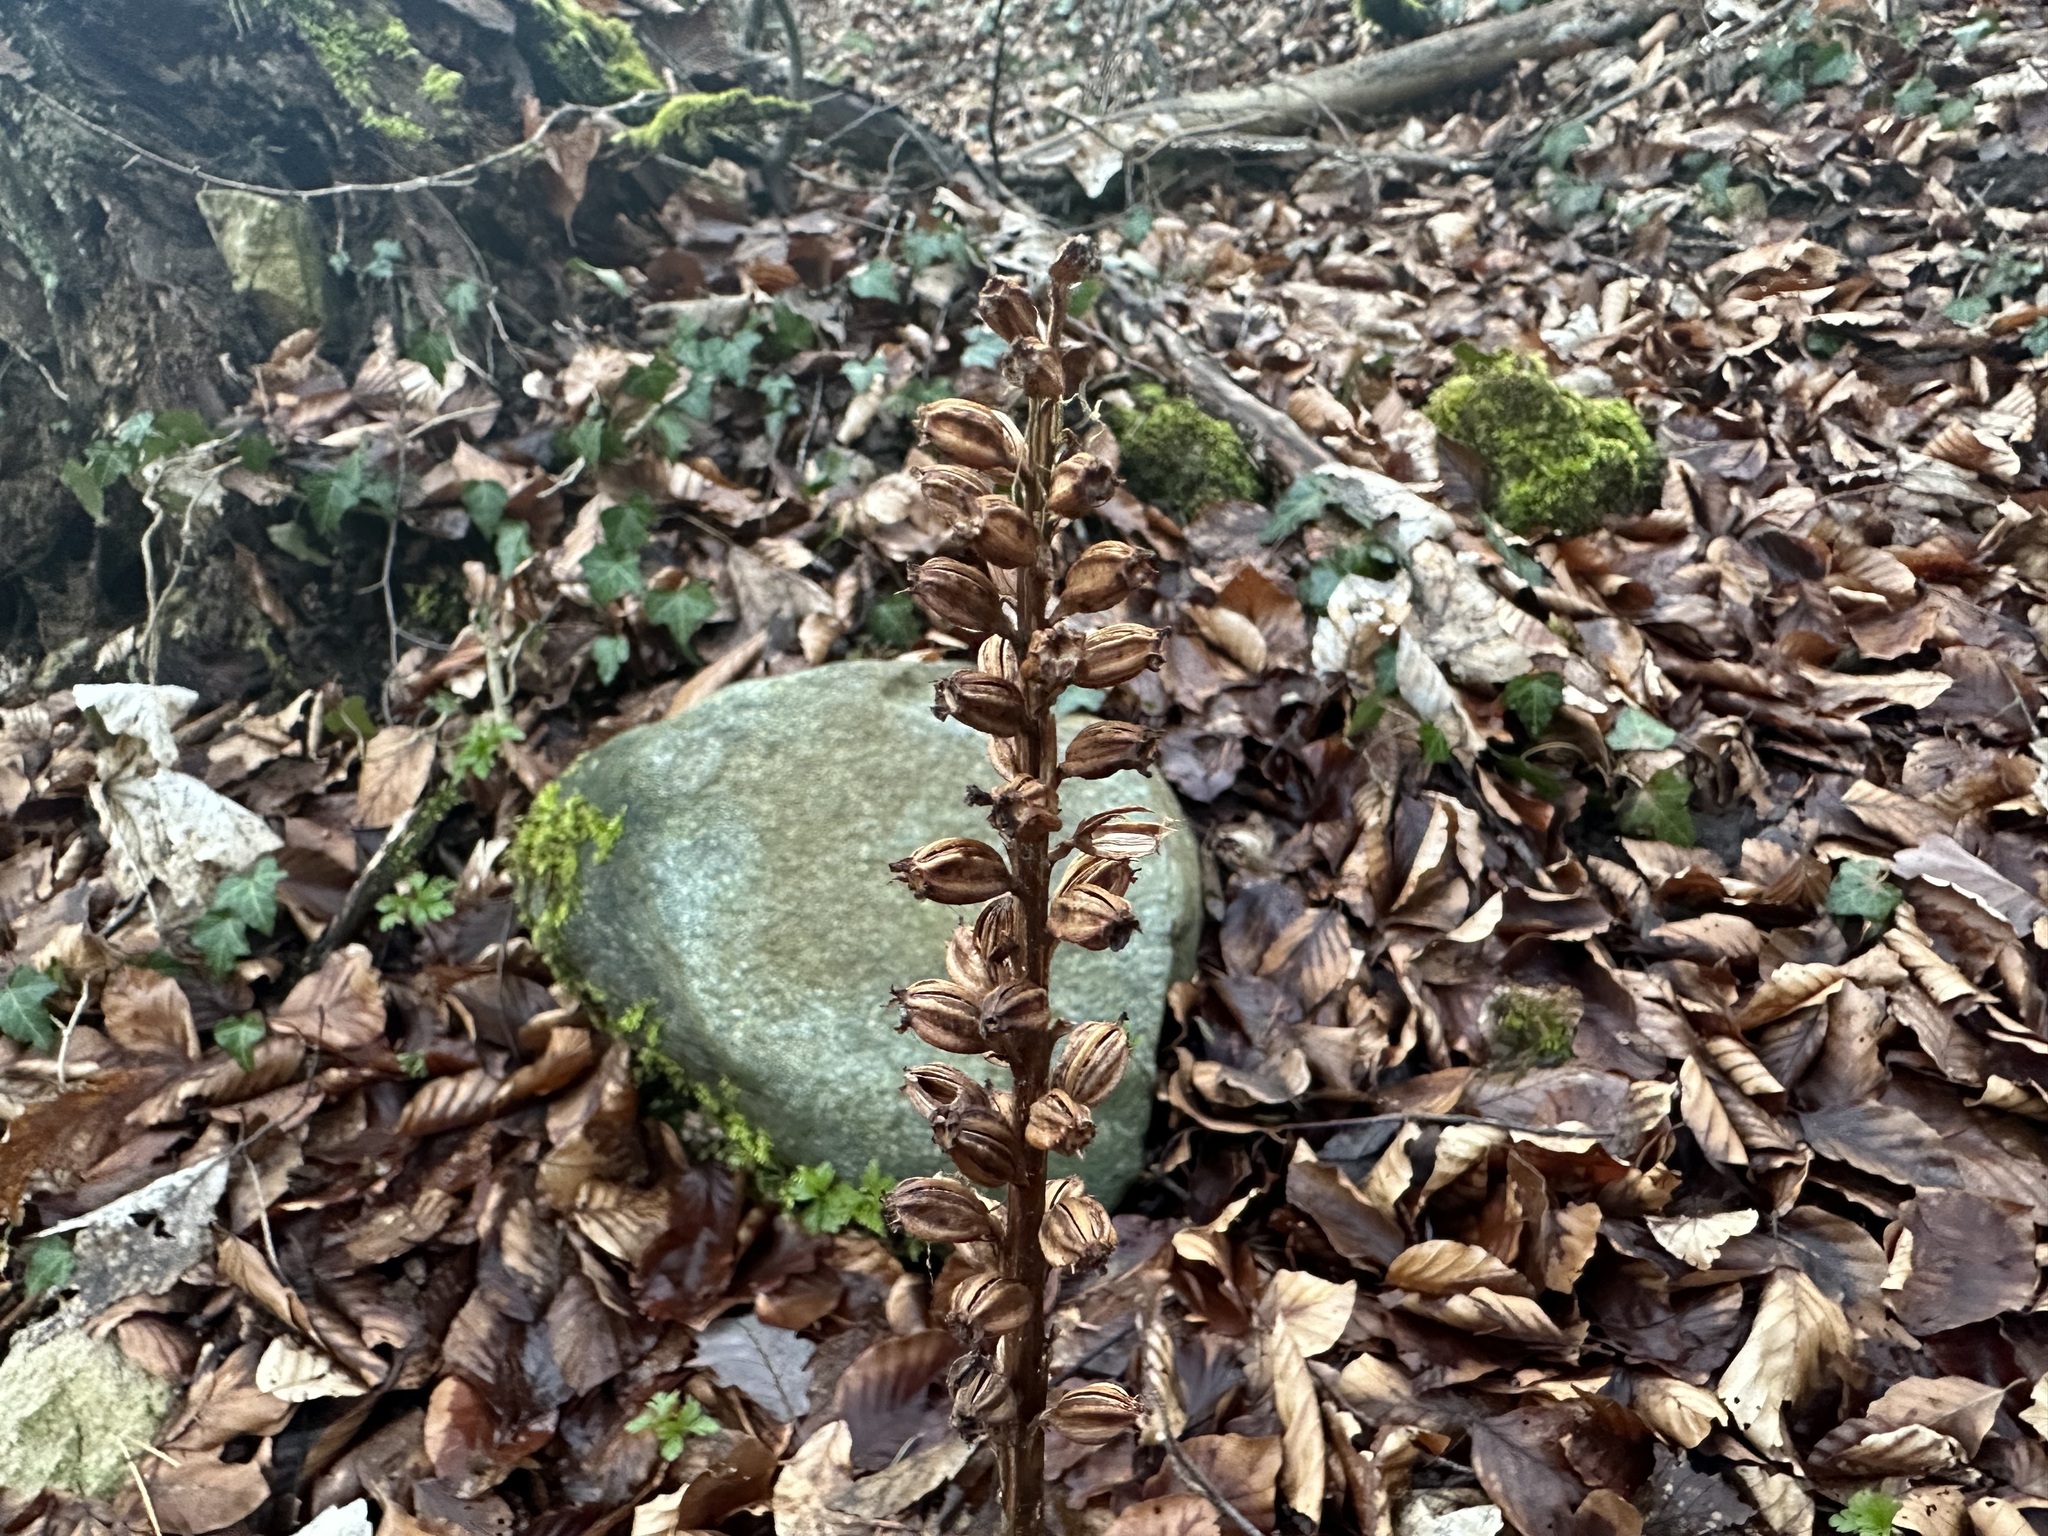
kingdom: Plantae
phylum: Tracheophyta
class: Liliopsida
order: Asparagales
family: Orchidaceae
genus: Neottia
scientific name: Neottia nidus-avis
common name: Bird's-nest orchid
